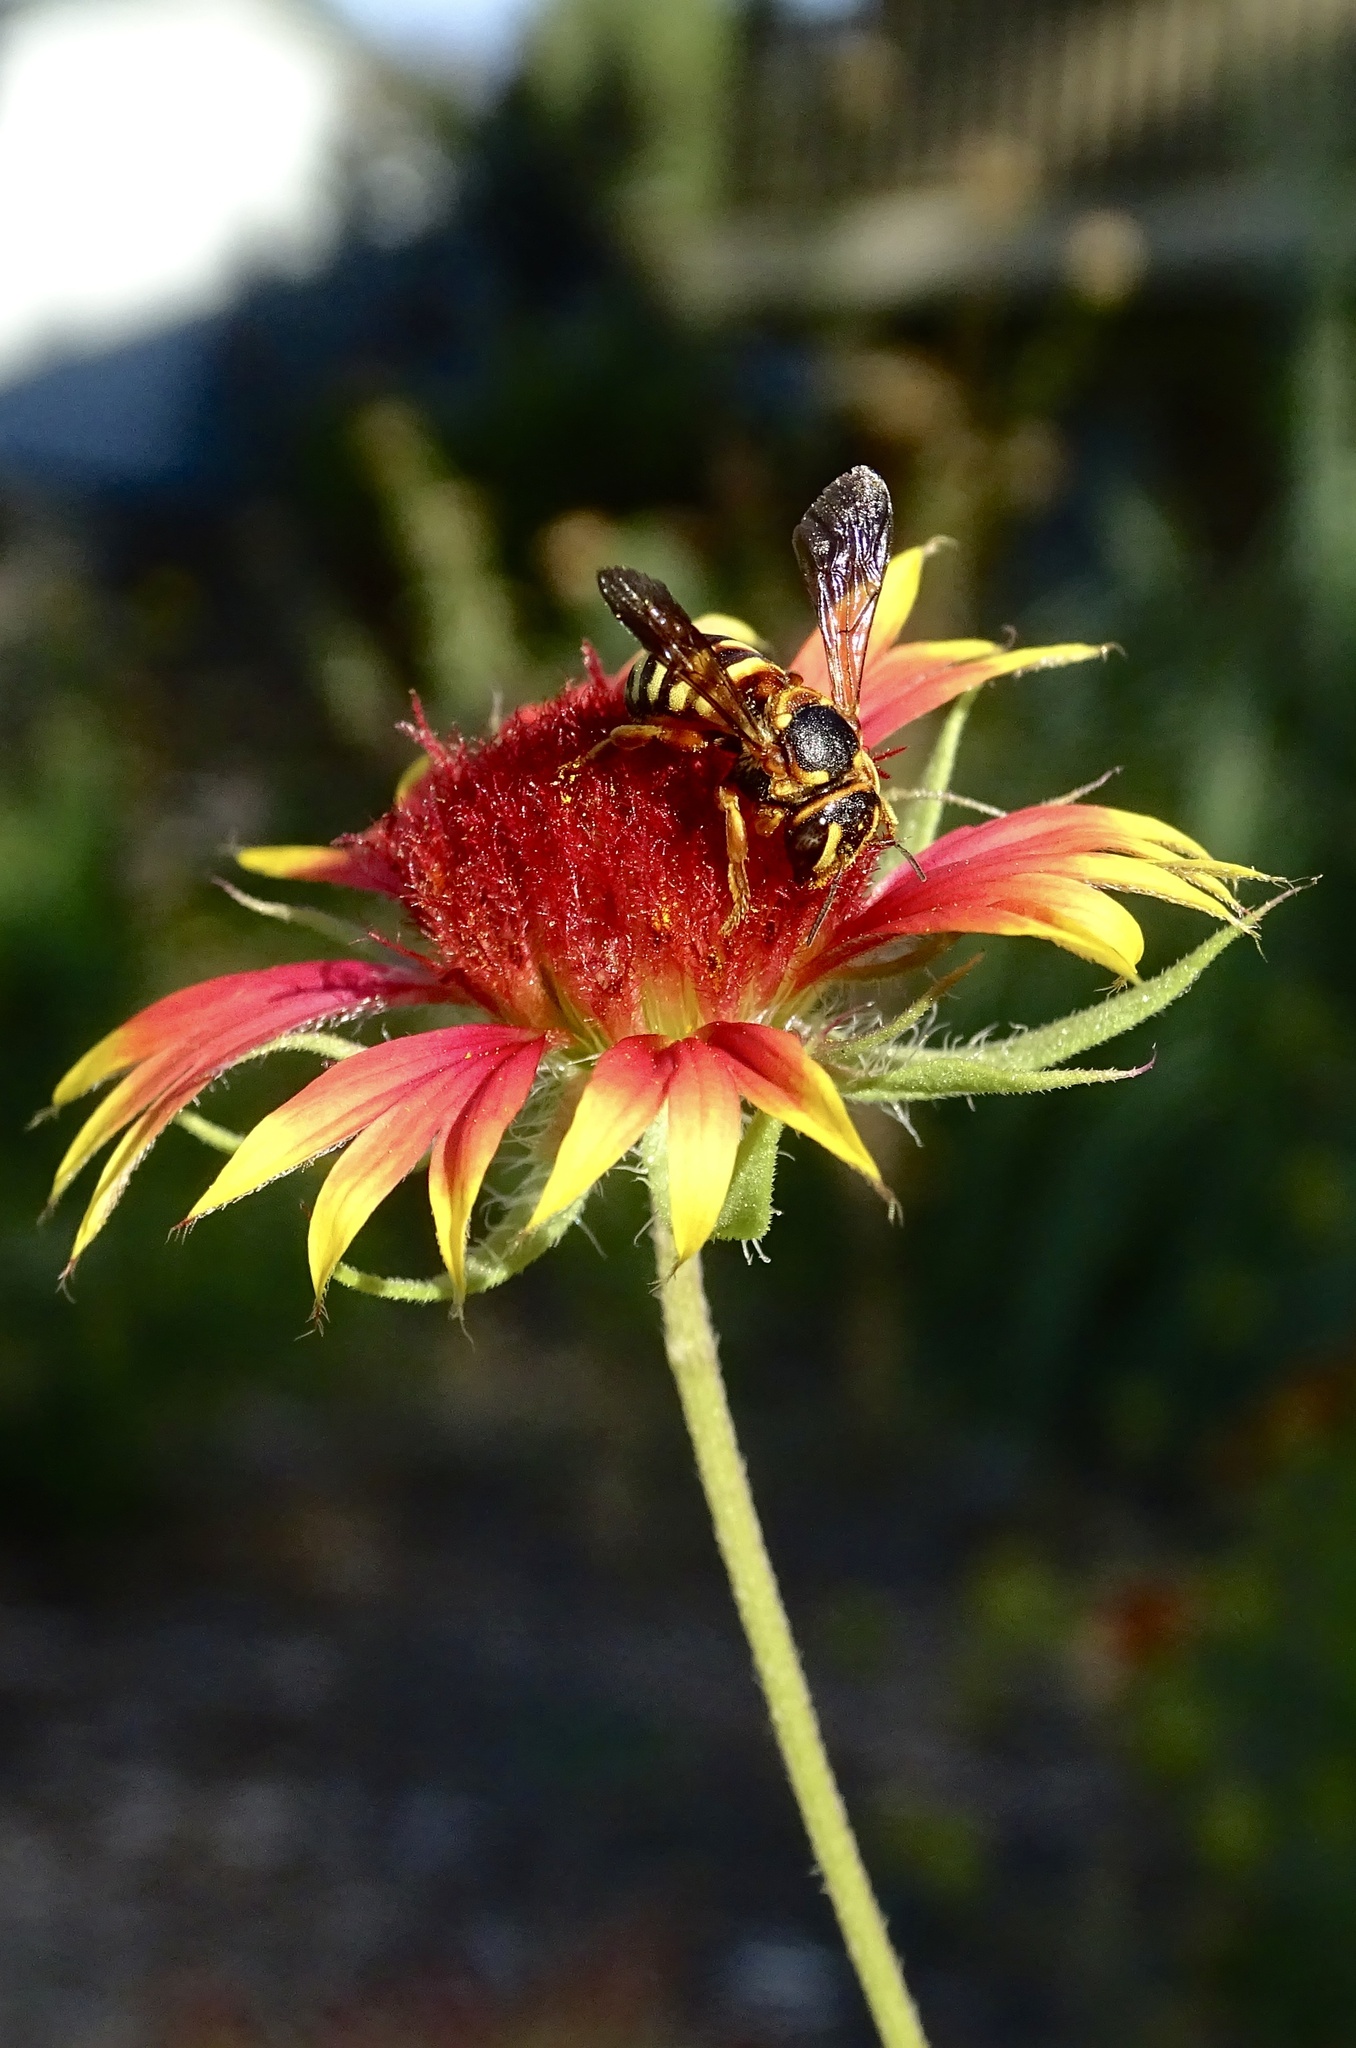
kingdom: Animalia
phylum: Arthropoda
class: Insecta
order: Hymenoptera
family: Megachilidae
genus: Dianthidium
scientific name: Dianthidium curvatum
